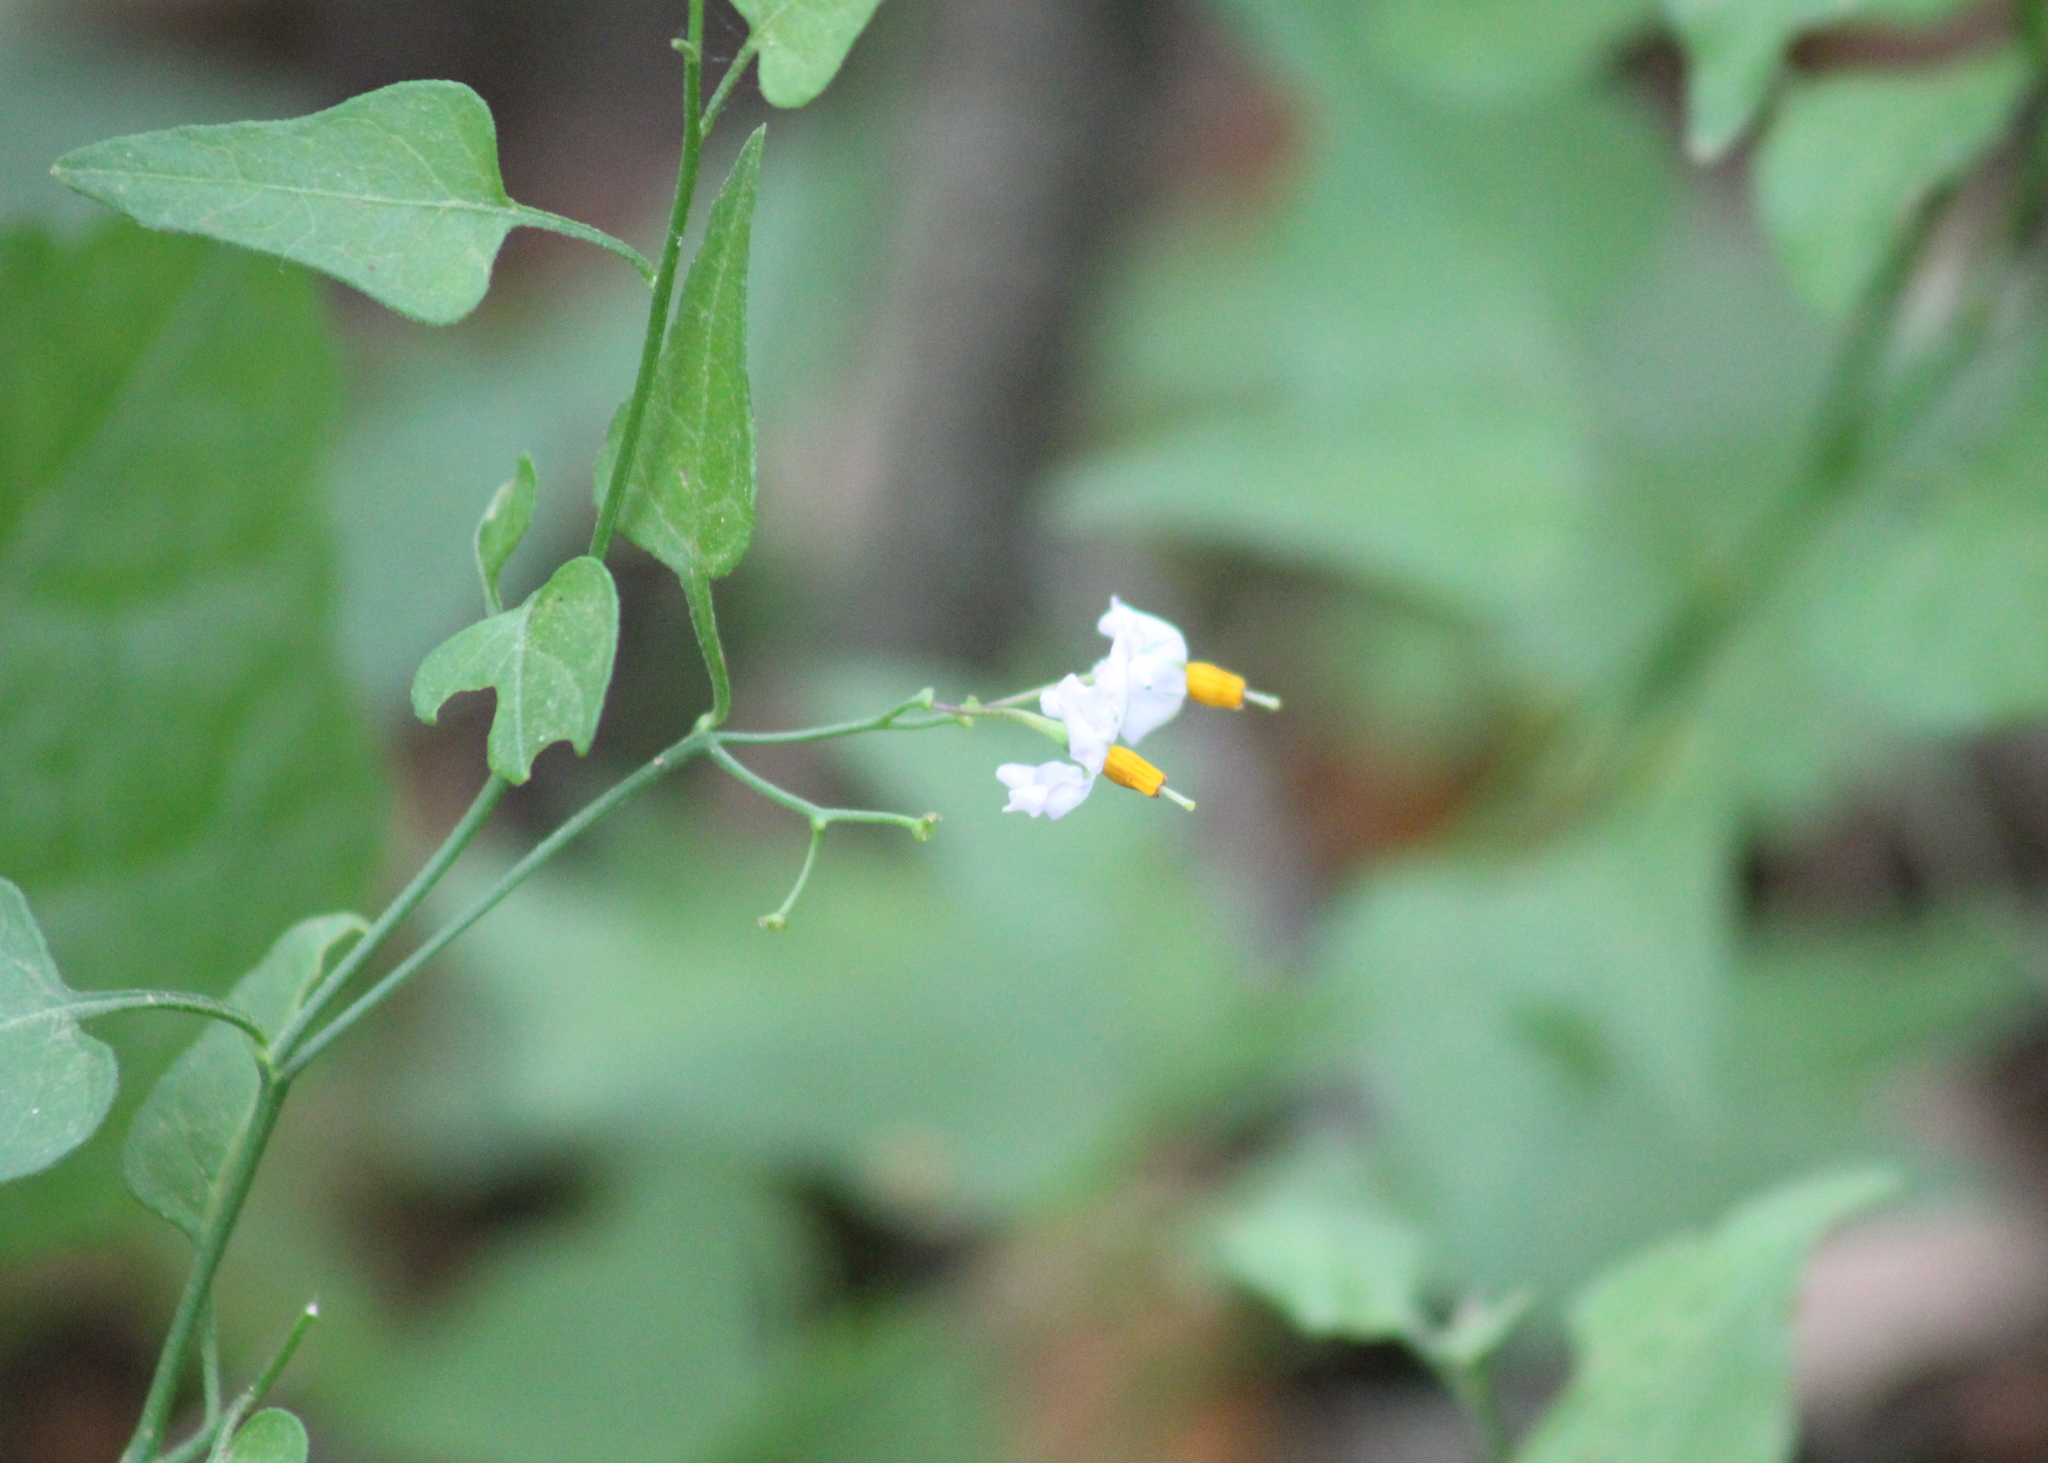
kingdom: Plantae
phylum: Tracheophyta
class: Magnoliopsida
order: Solanales
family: Solanaceae
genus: Solanum
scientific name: Solanum triquetrum
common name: Texas nightshade
